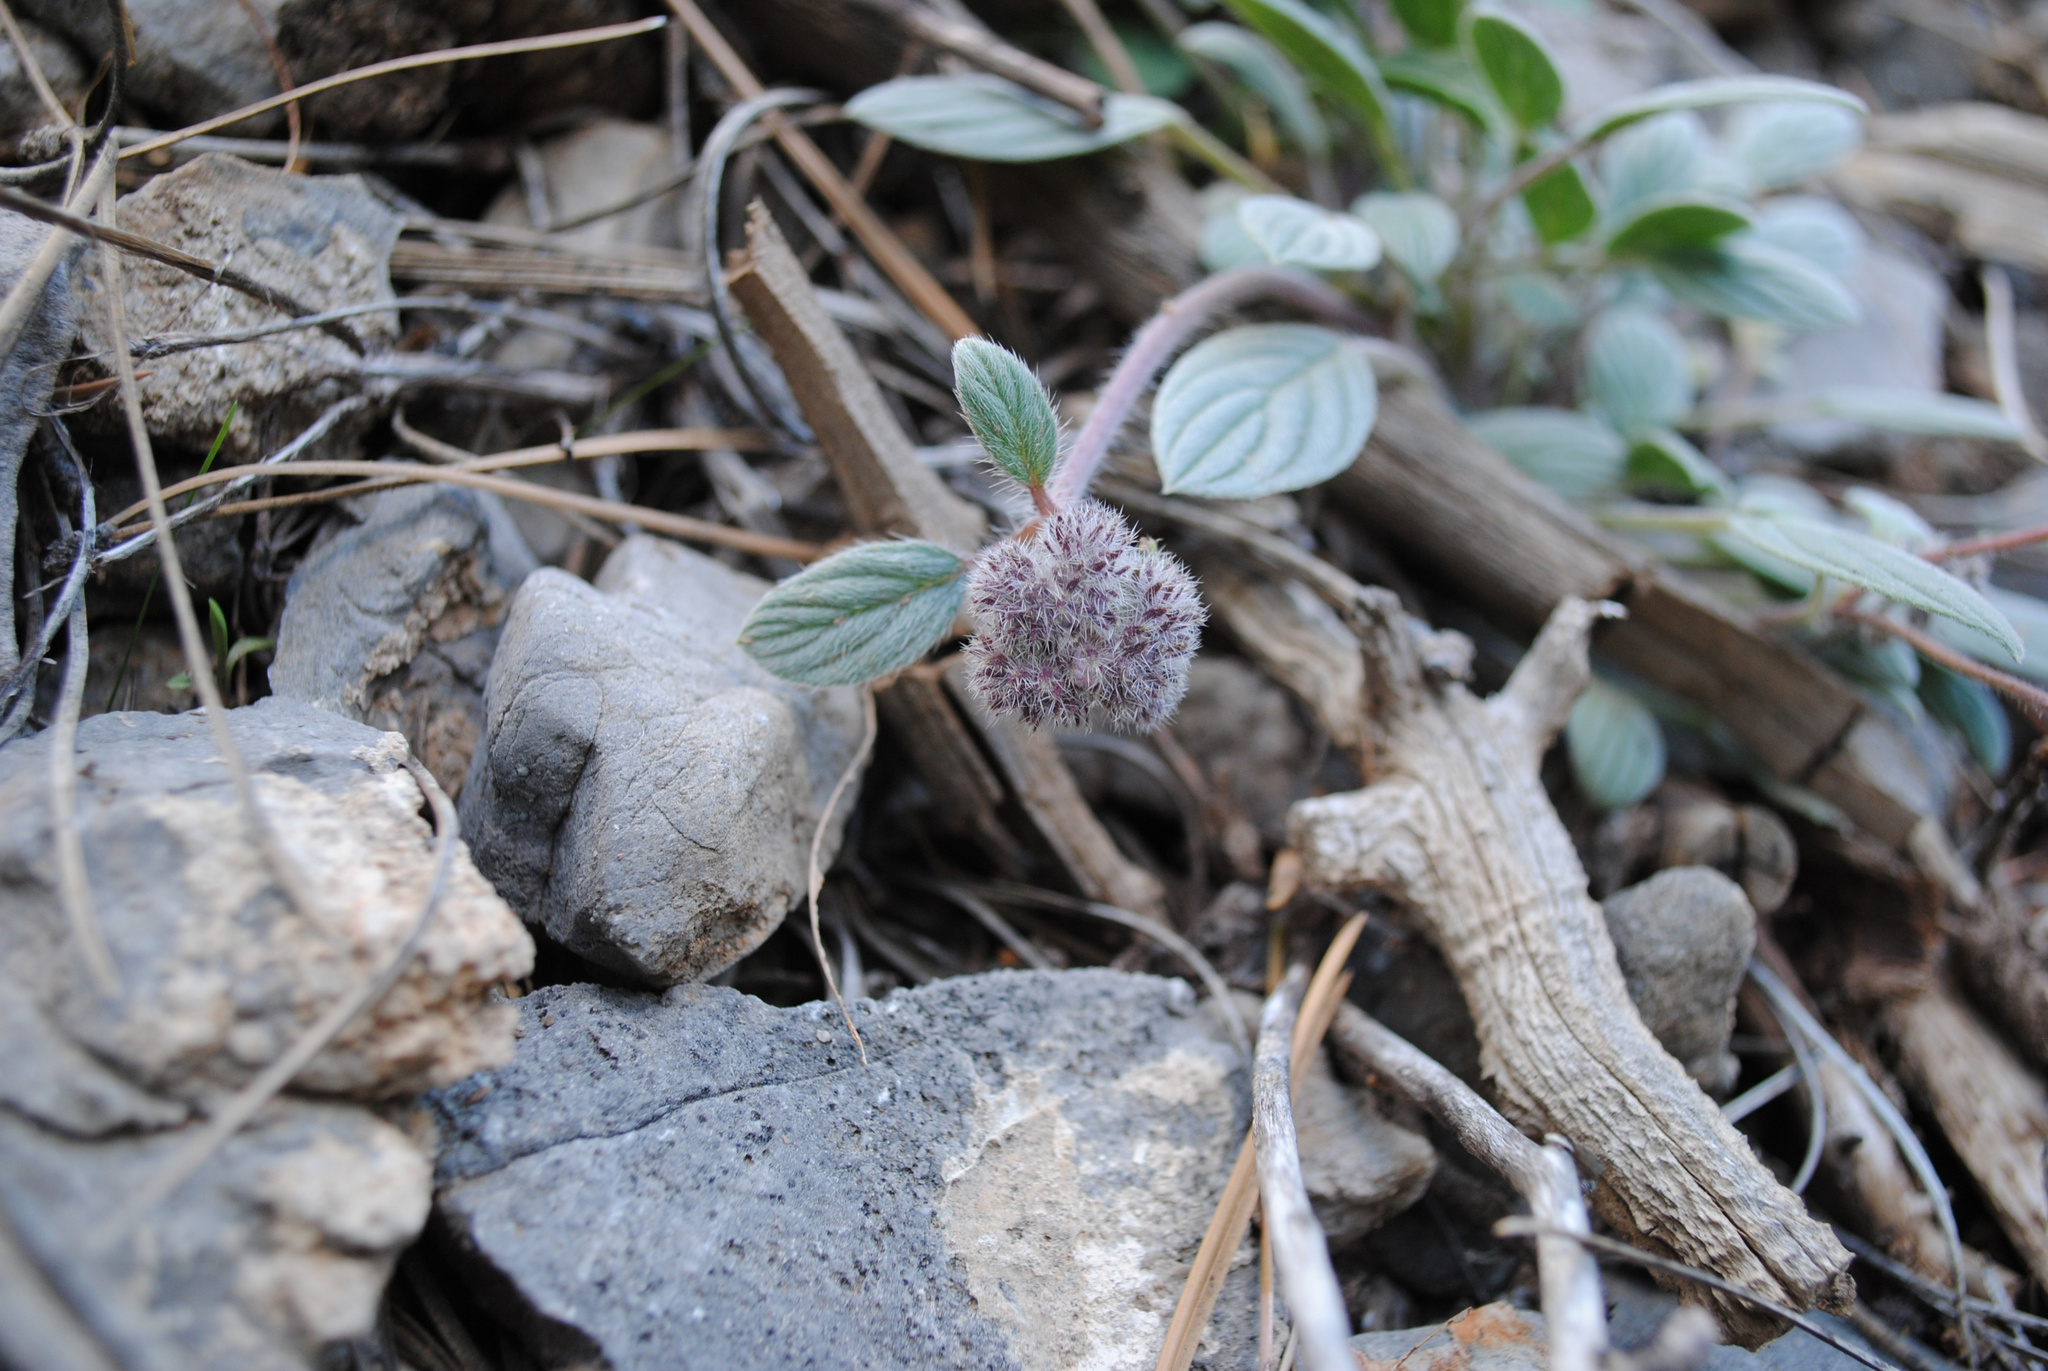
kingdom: Plantae
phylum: Tracheophyta
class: Magnoliopsida
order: Boraginales
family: Hydrophyllaceae
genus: Phacelia
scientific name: Phacelia hastata
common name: Silver-leaved phacelia
